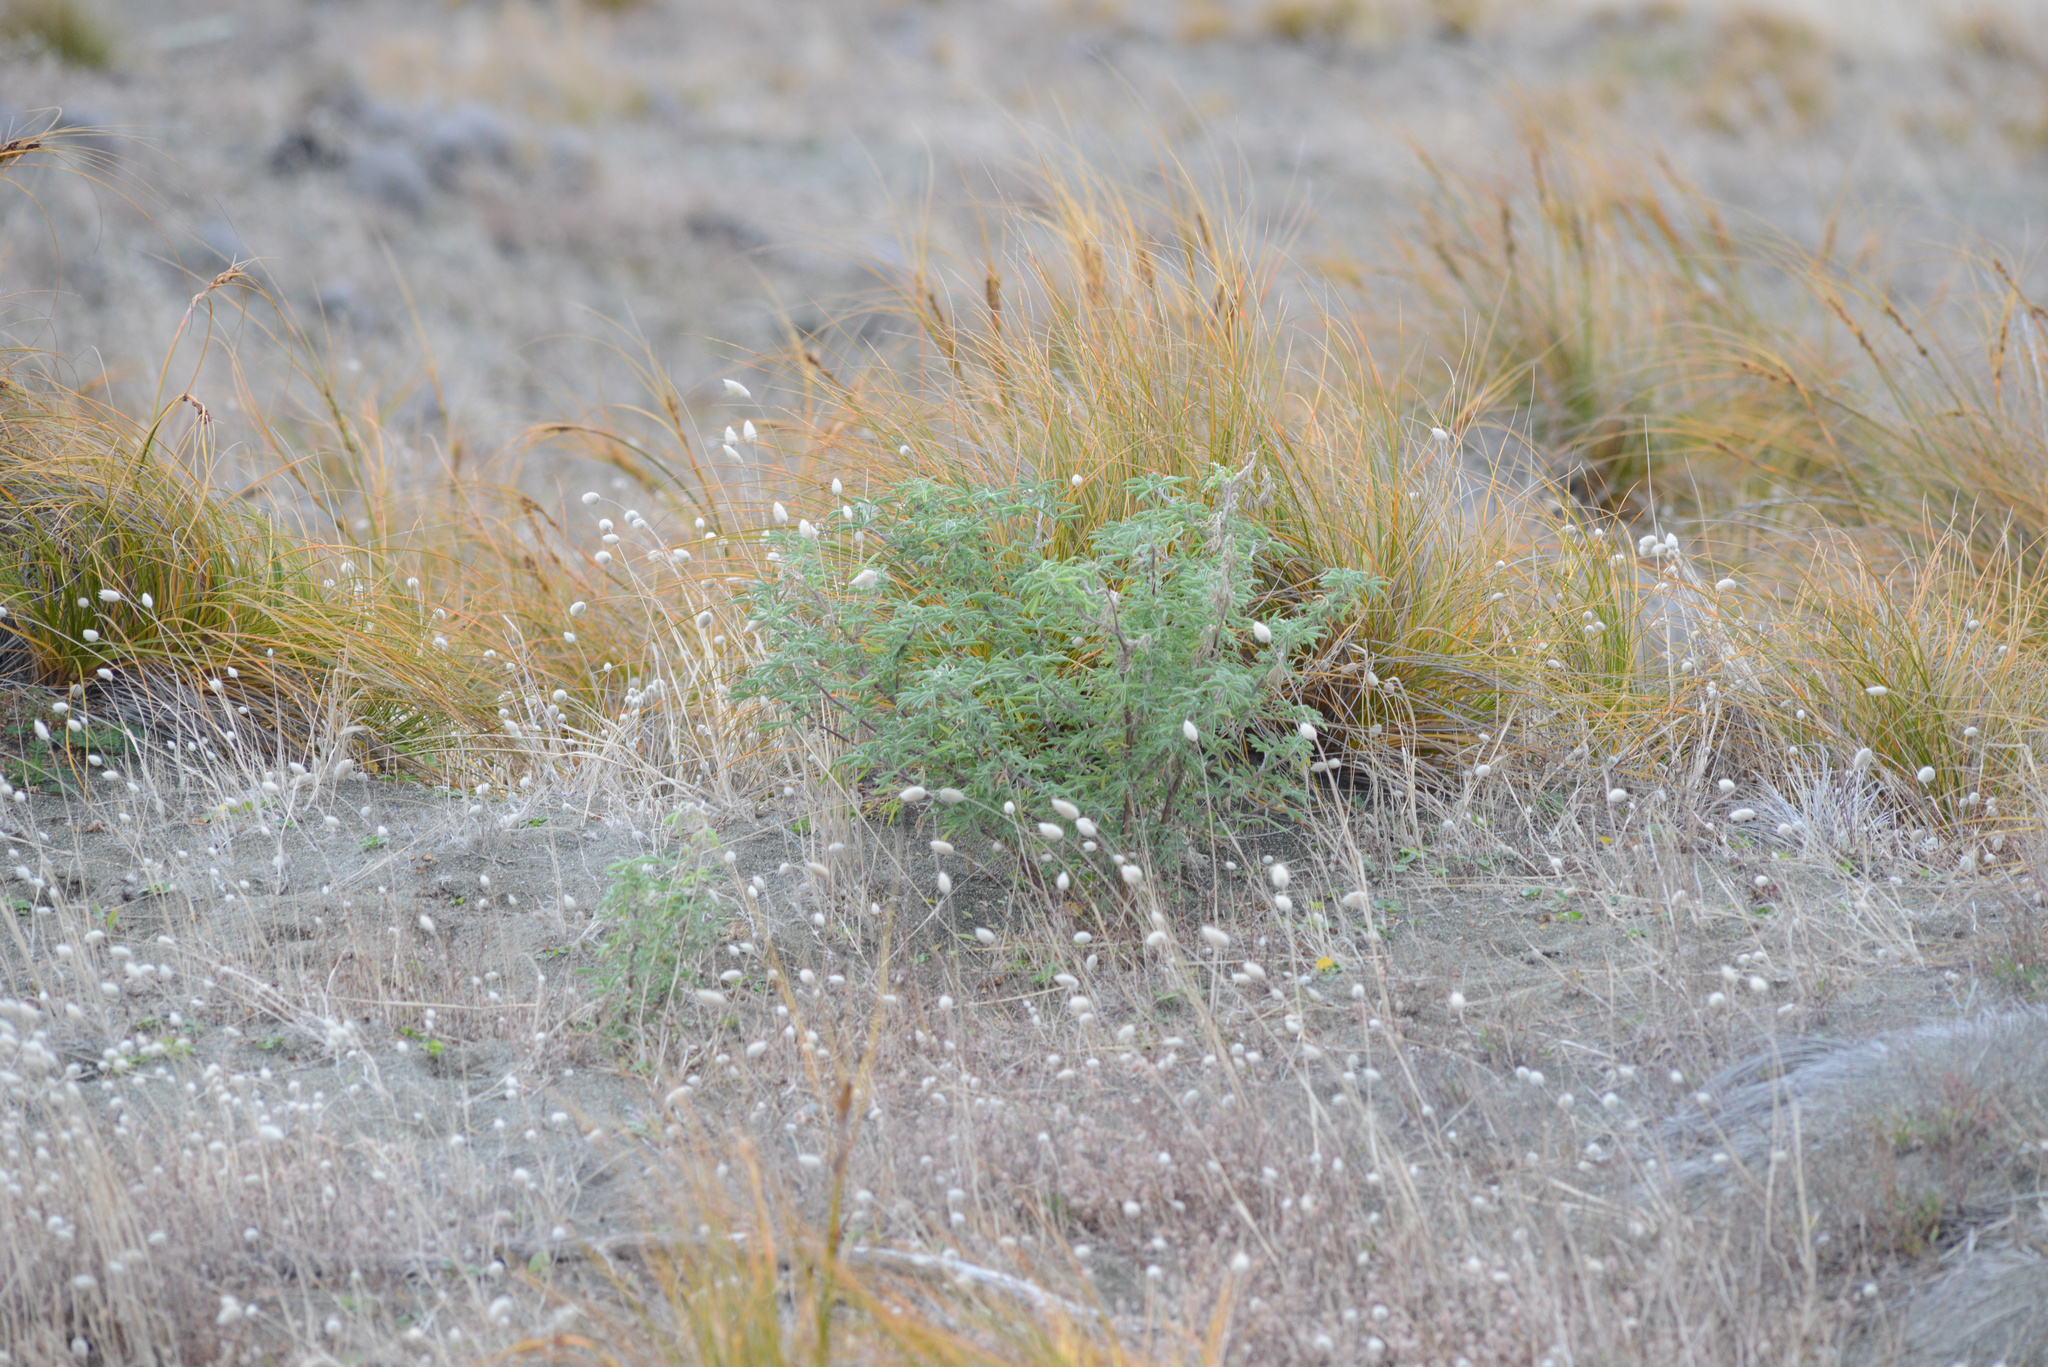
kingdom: Plantae
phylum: Tracheophyta
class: Magnoliopsida
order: Fabales
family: Fabaceae
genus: Lupinus
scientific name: Lupinus arboreus
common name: Yellow bush lupine
